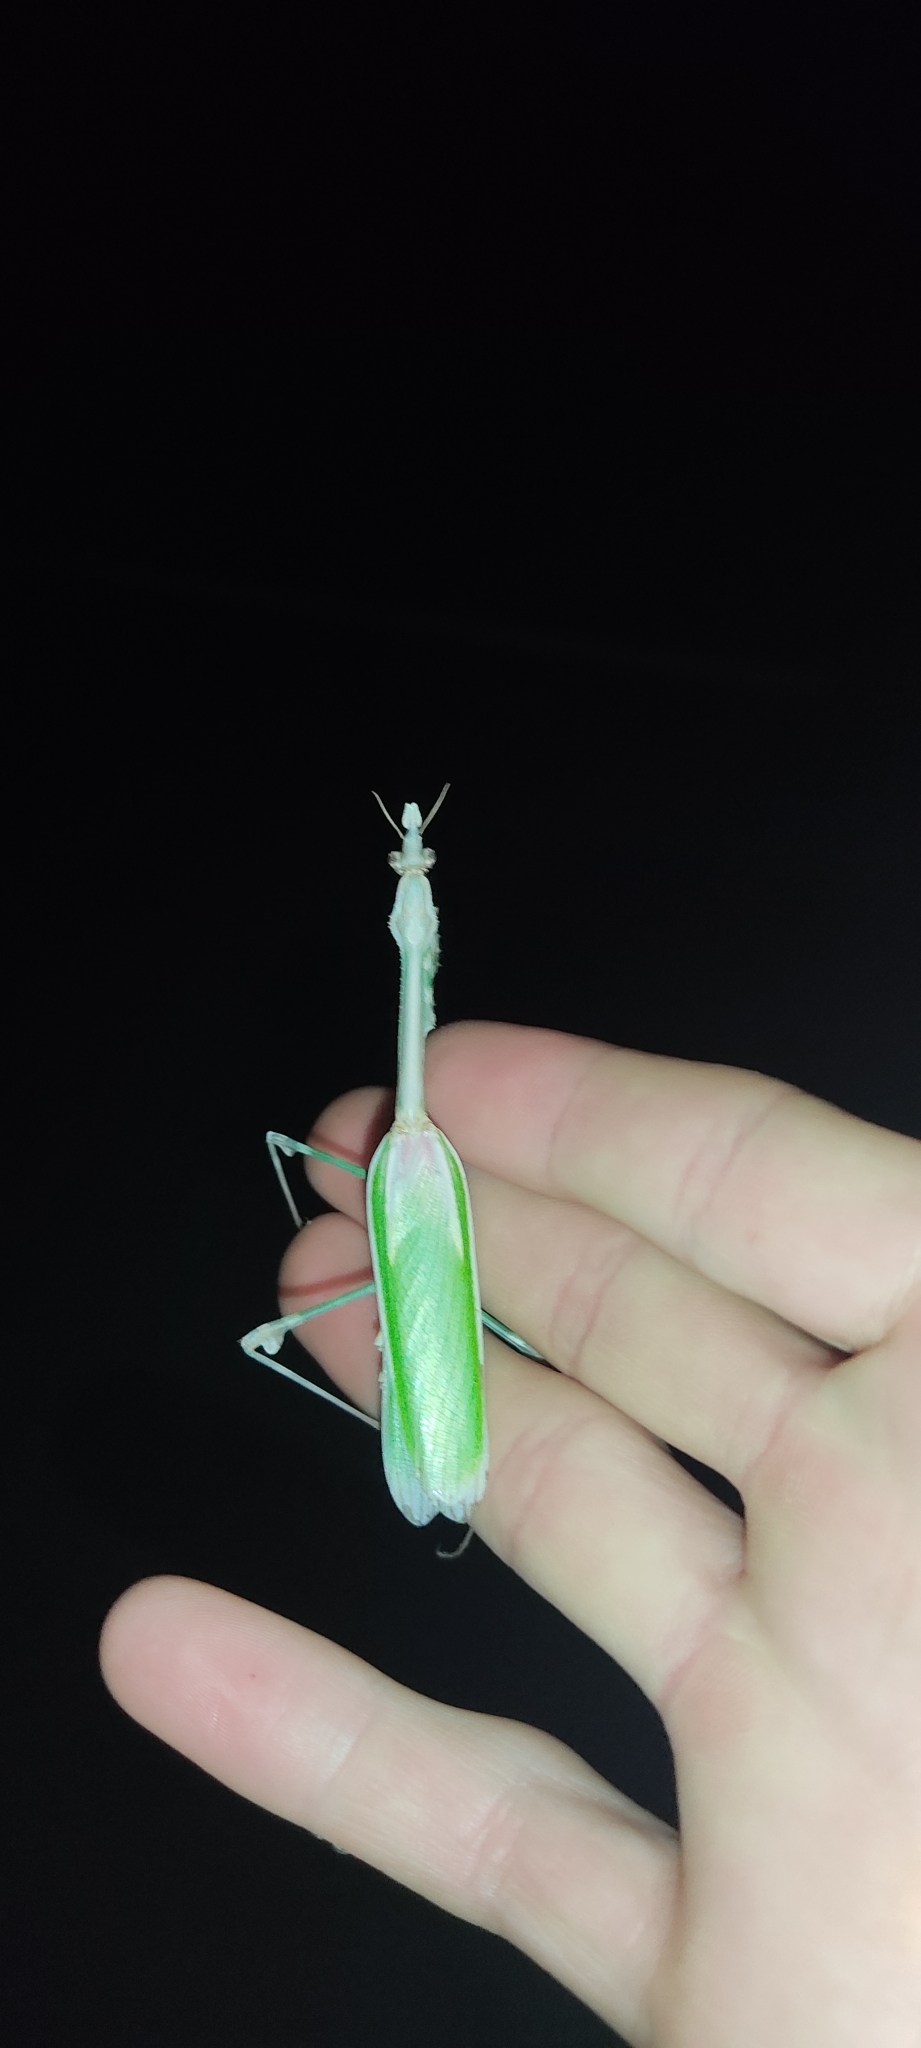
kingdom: Animalia
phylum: Arthropoda
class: Insecta
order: Mantodea
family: Empusidae
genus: Empusa
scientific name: Empusa pennata
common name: Conehead mantis
